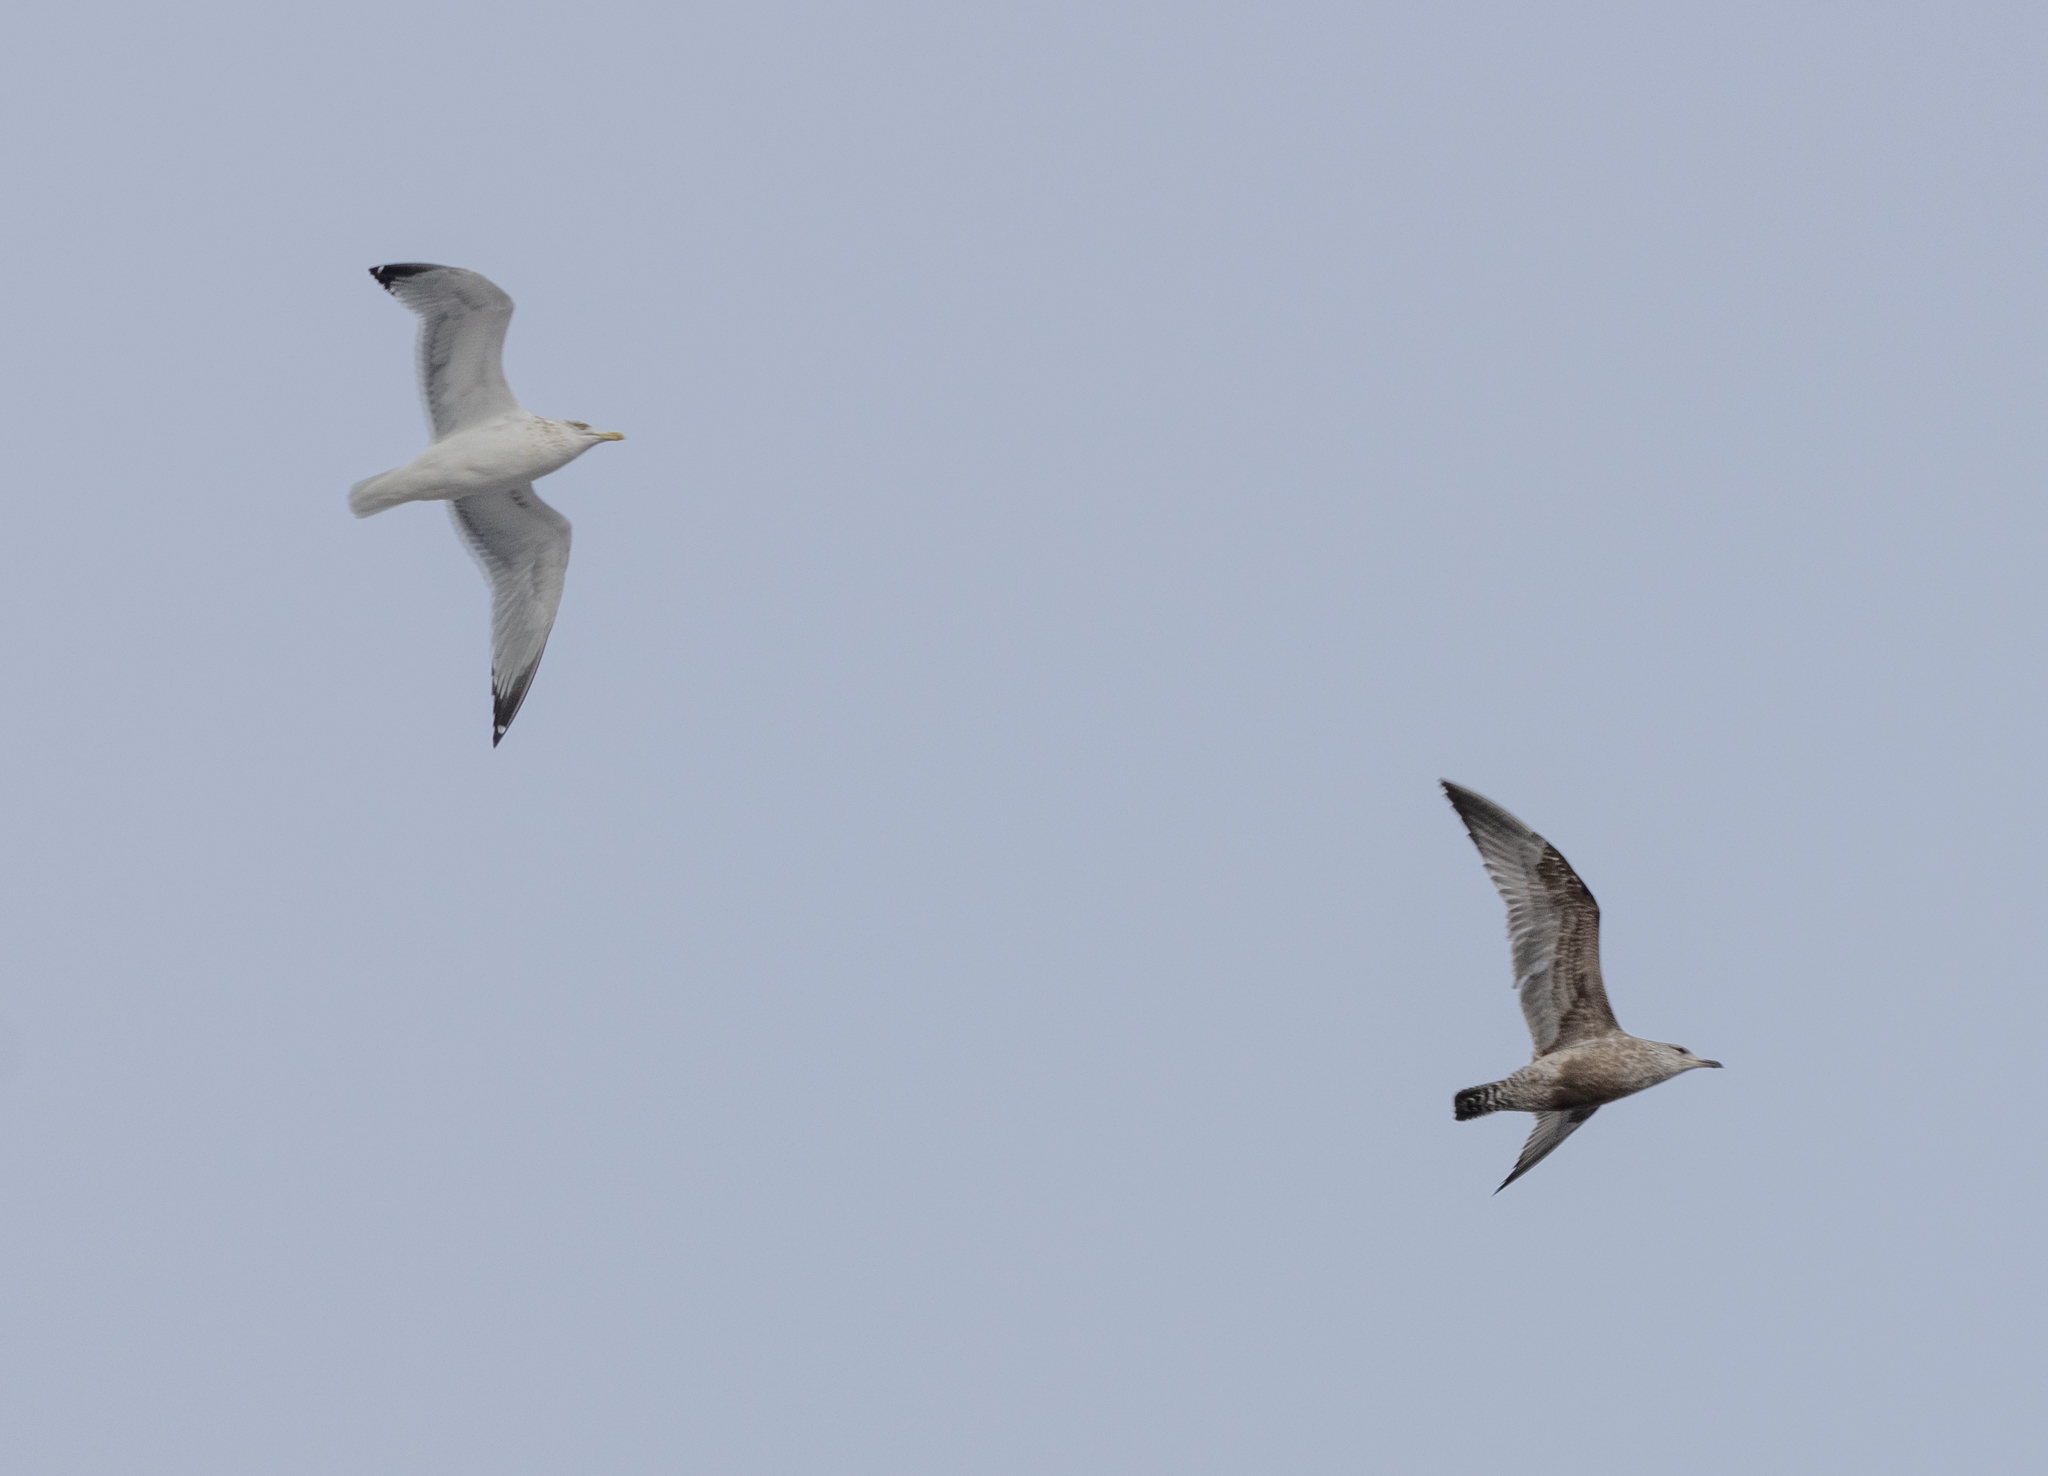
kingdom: Animalia
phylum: Chordata
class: Aves
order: Charadriiformes
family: Laridae
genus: Larus
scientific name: Larus argentatus
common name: Herring gull
